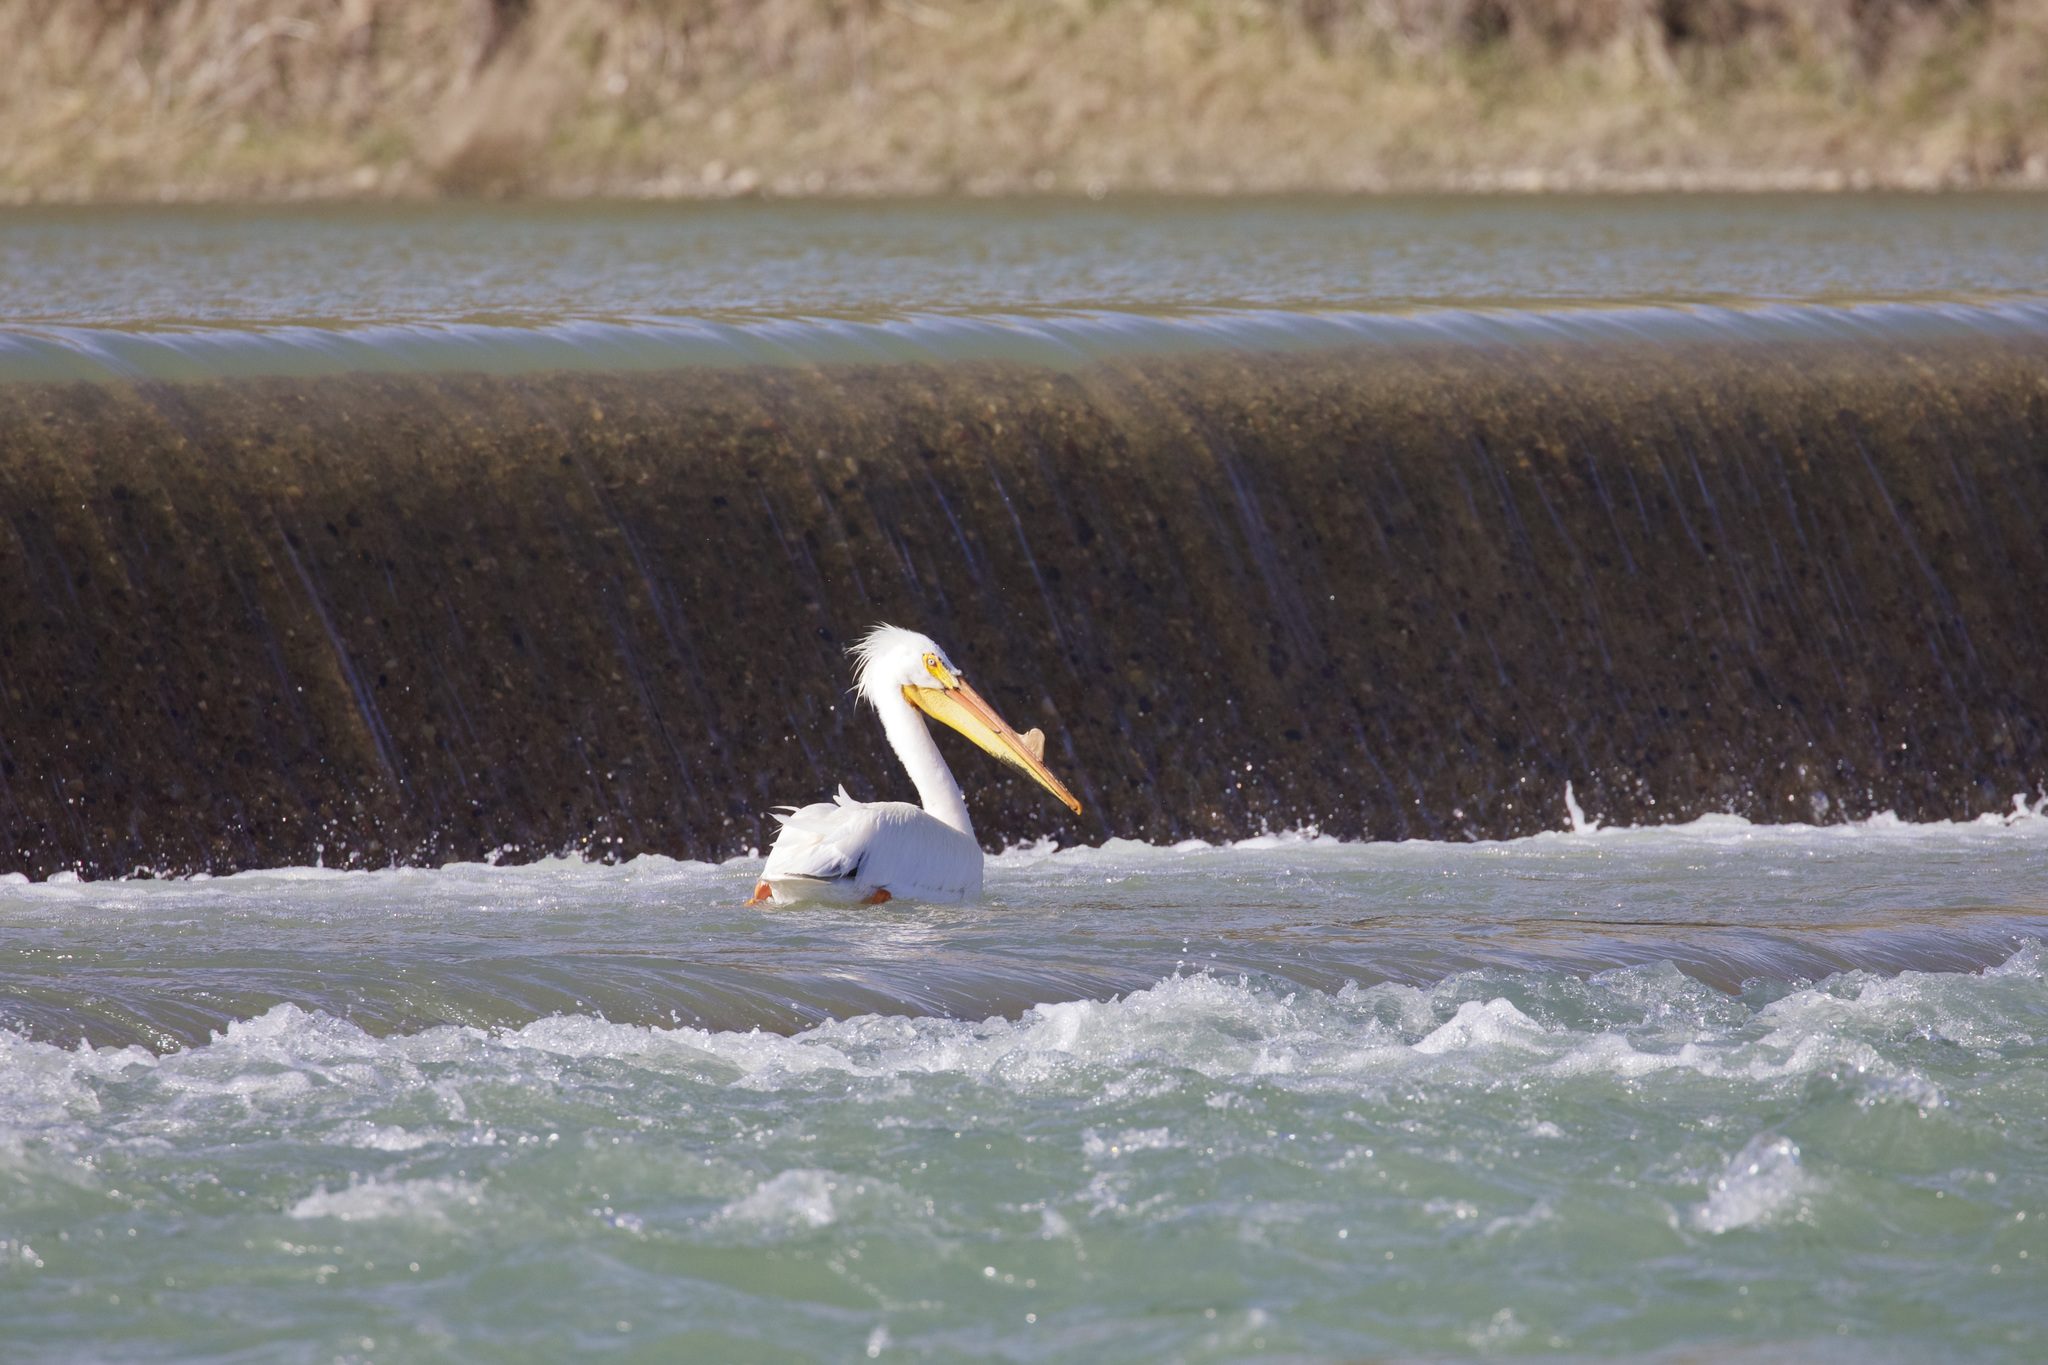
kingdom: Animalia
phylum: Chordata
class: Aves
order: Pelecaniformes
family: Pelecanidae
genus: Pelecanus
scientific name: Pelecanus erythrorhynchos
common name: American white pelican
